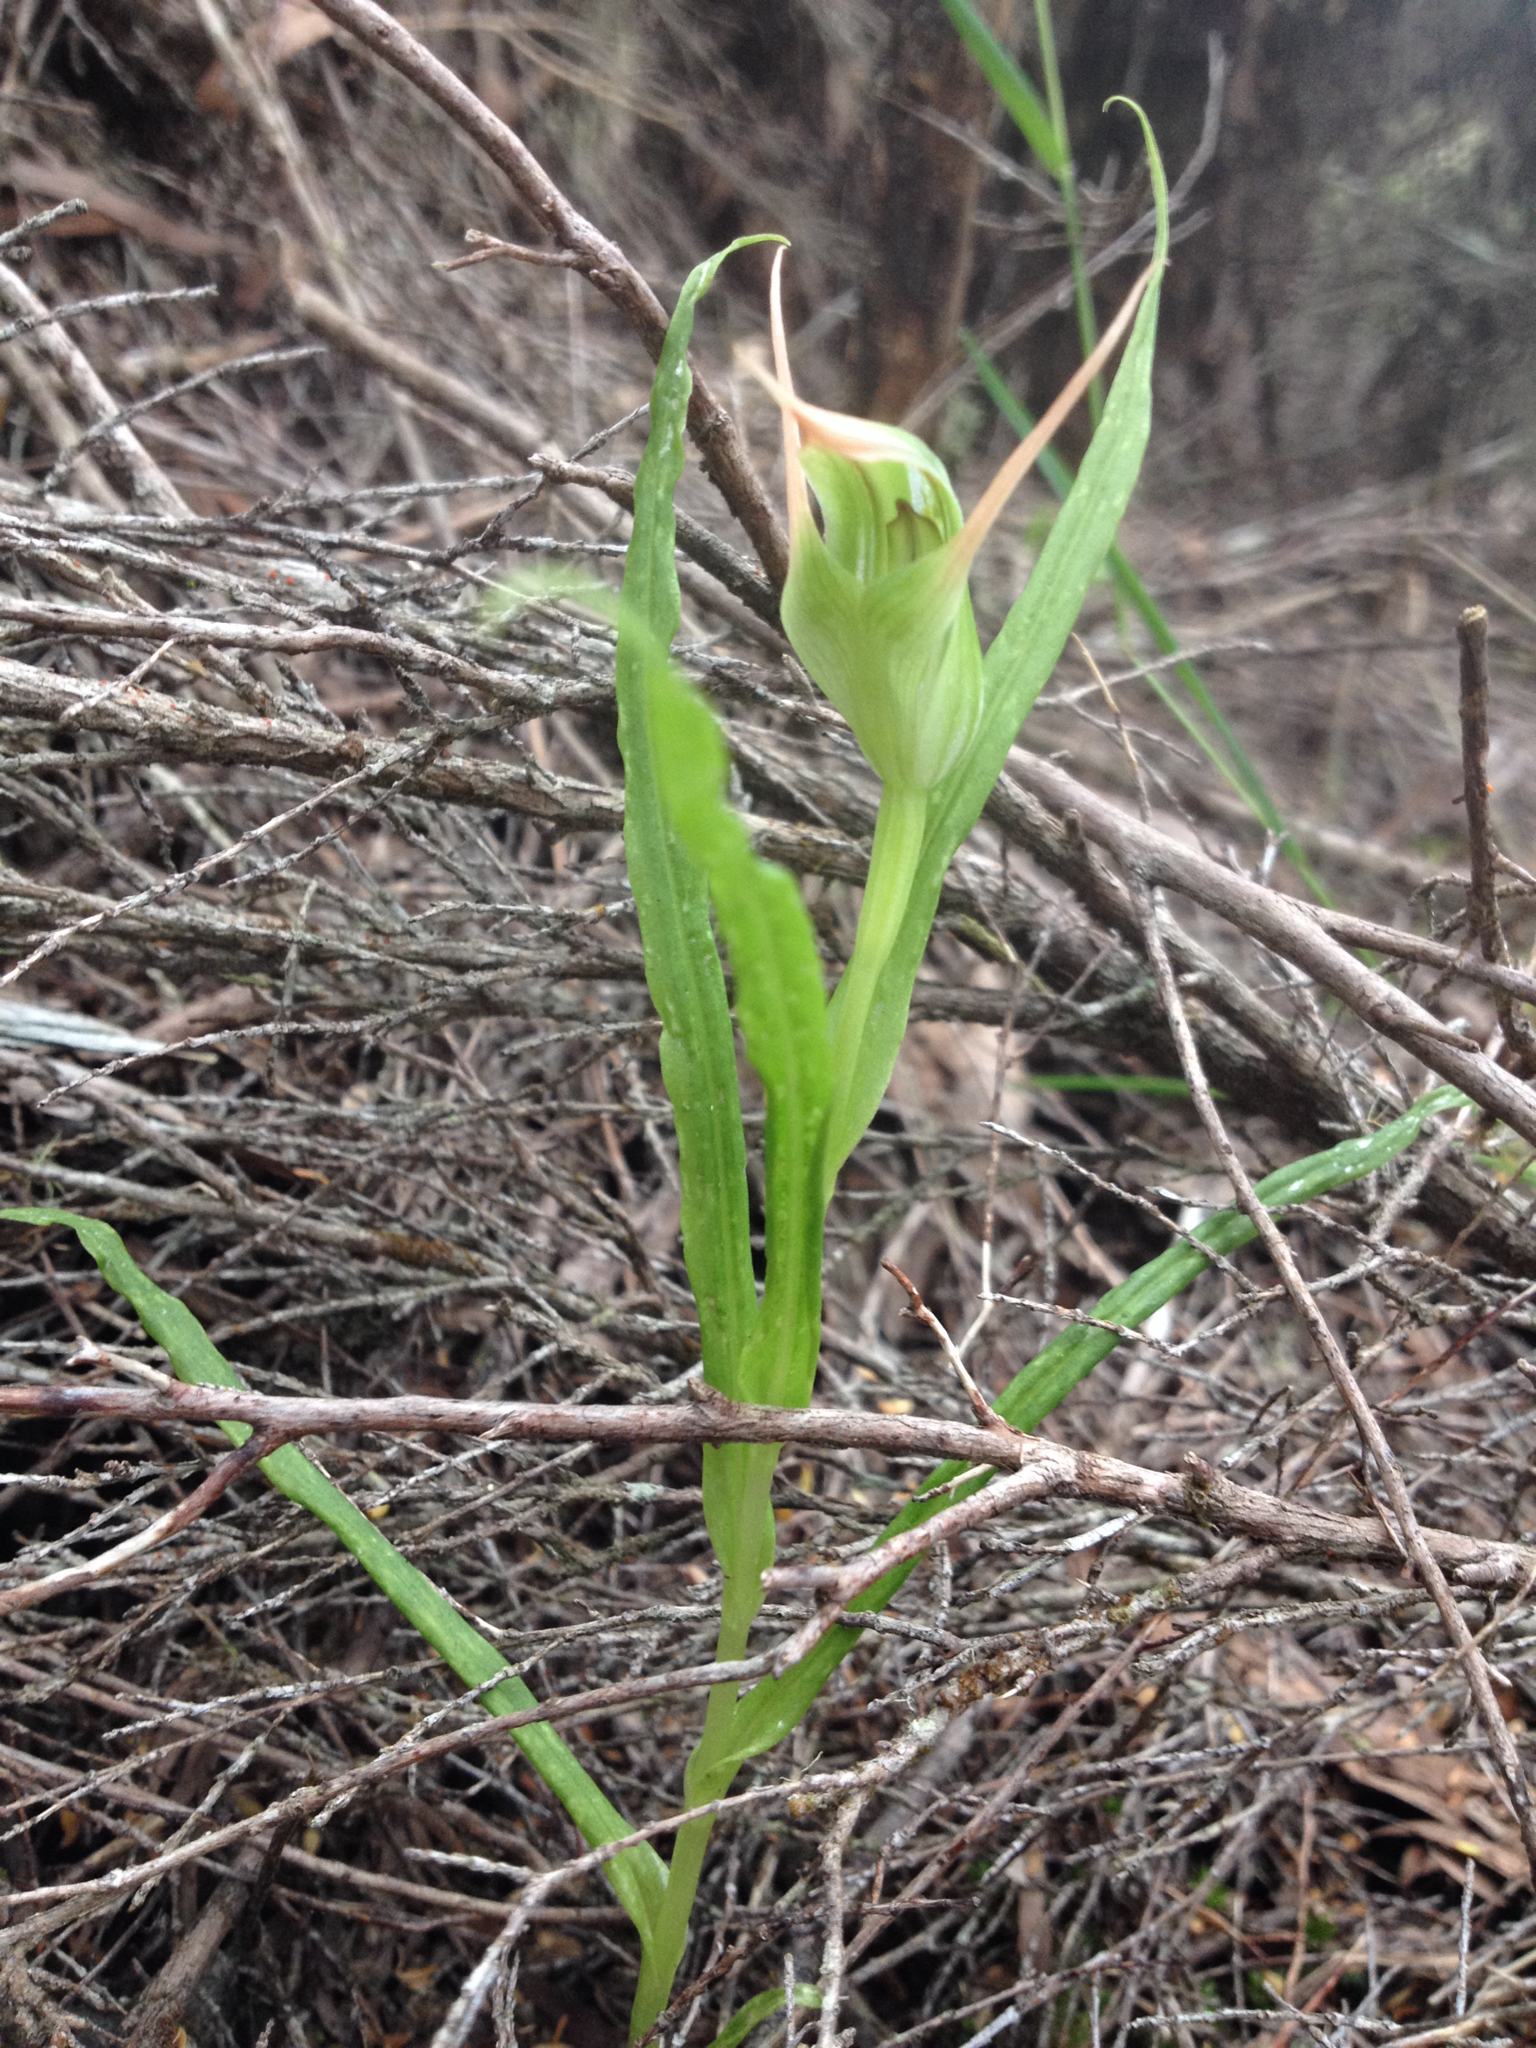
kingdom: Plantae
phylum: Tracheophyta
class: Liliopsida
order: Asparagales
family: Orchidaceae
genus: Pterostylis
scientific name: Pterostylis montana
